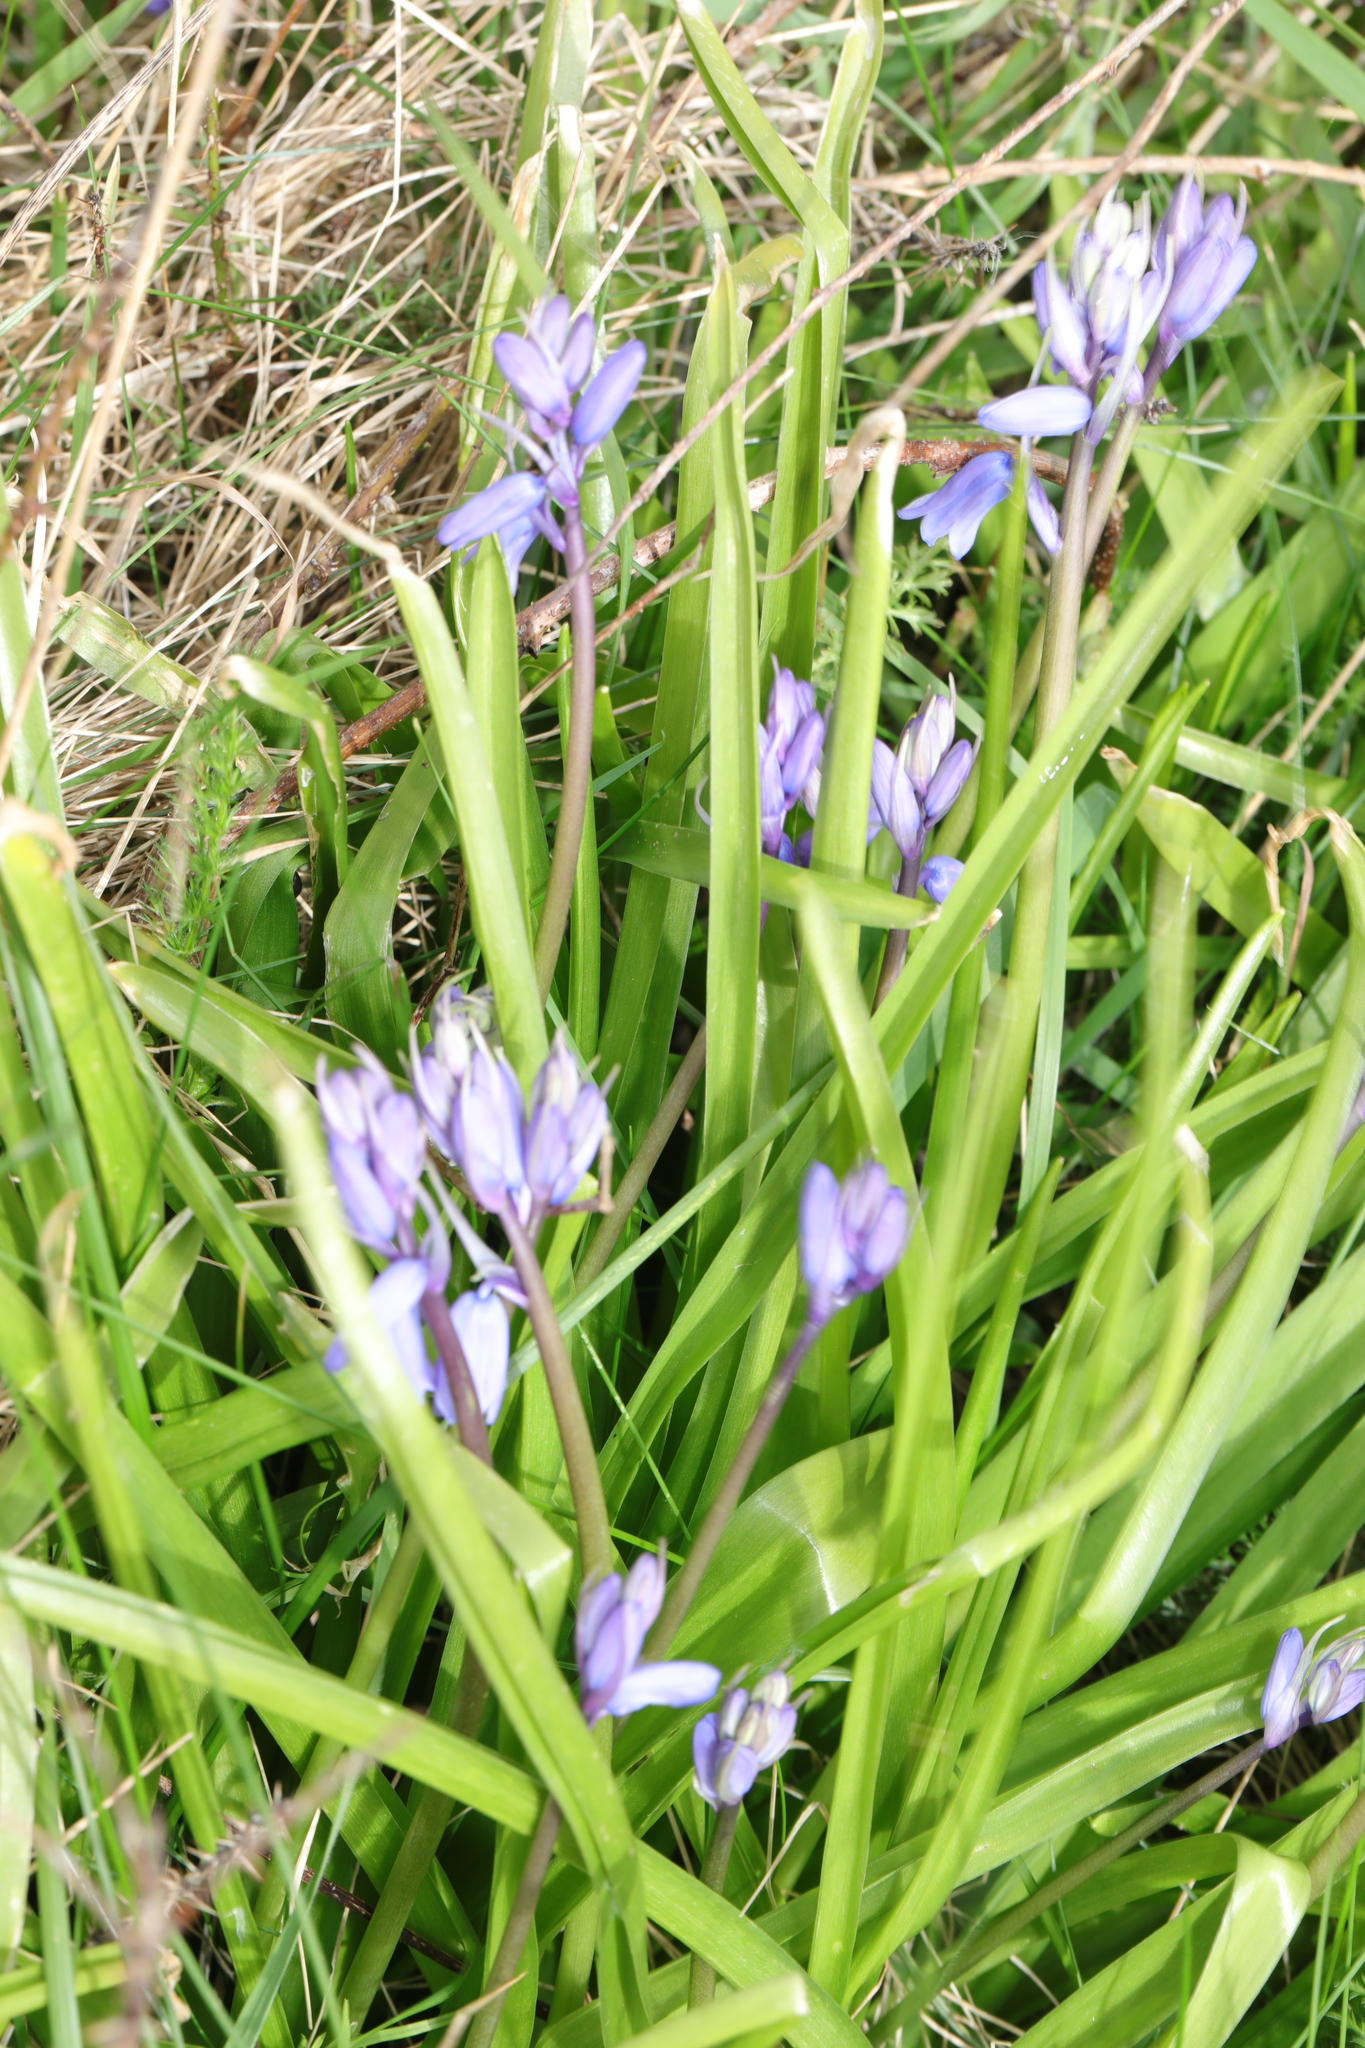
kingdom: Plantae
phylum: Tracheophyta
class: Liliopsida
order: Asparagales
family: Asparagaceae
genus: Hyacinthoides
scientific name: Hyacinthoides massartiana
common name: Hyacinthoides
